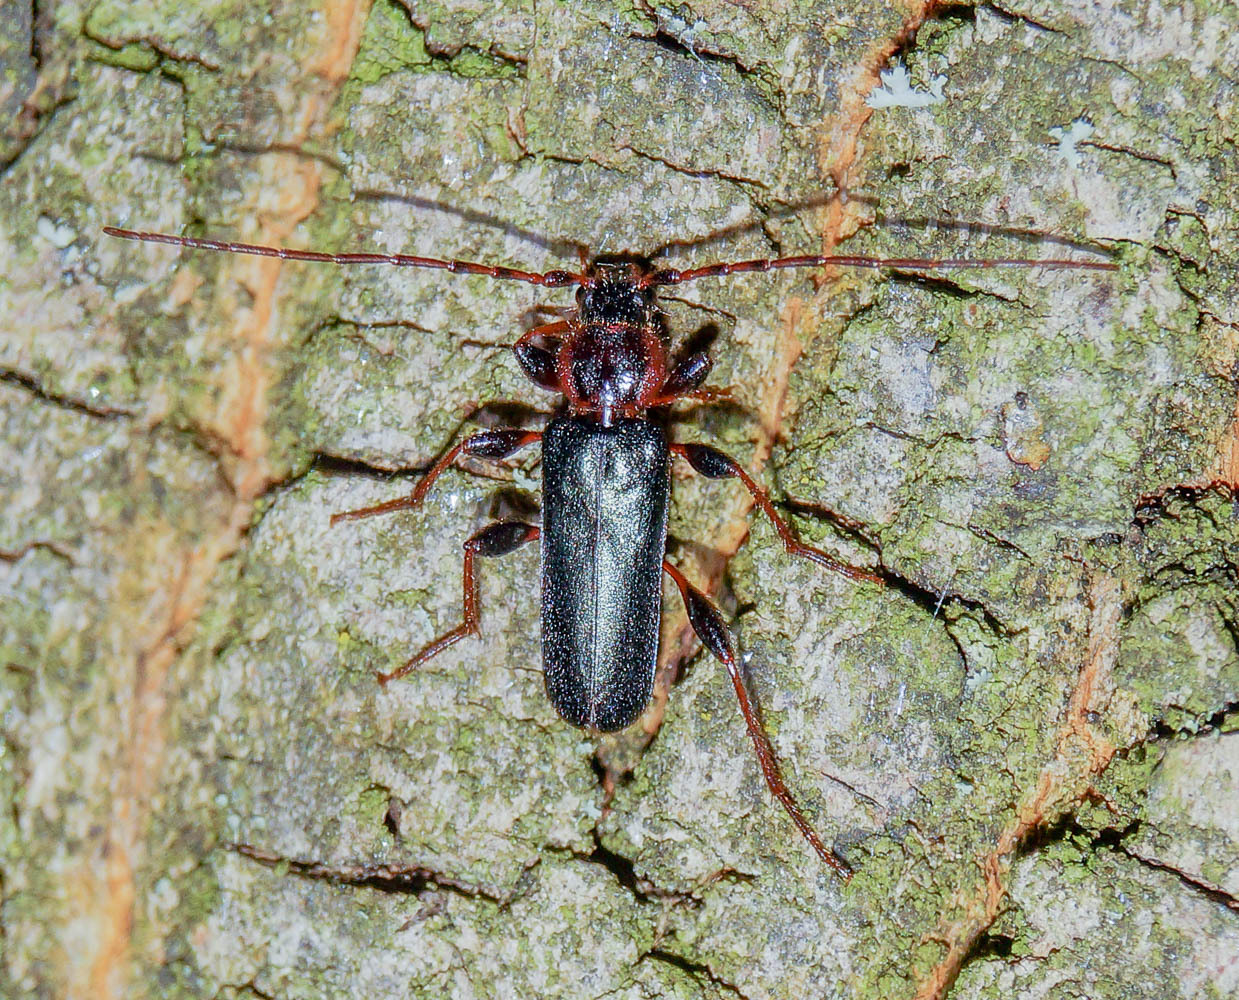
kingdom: Animalia
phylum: Arthropoda
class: Insecta
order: Coleoptera
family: Cerambycidae
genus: Phymatodes
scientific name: Phymatodes testaceus
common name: Long-horned beetle
